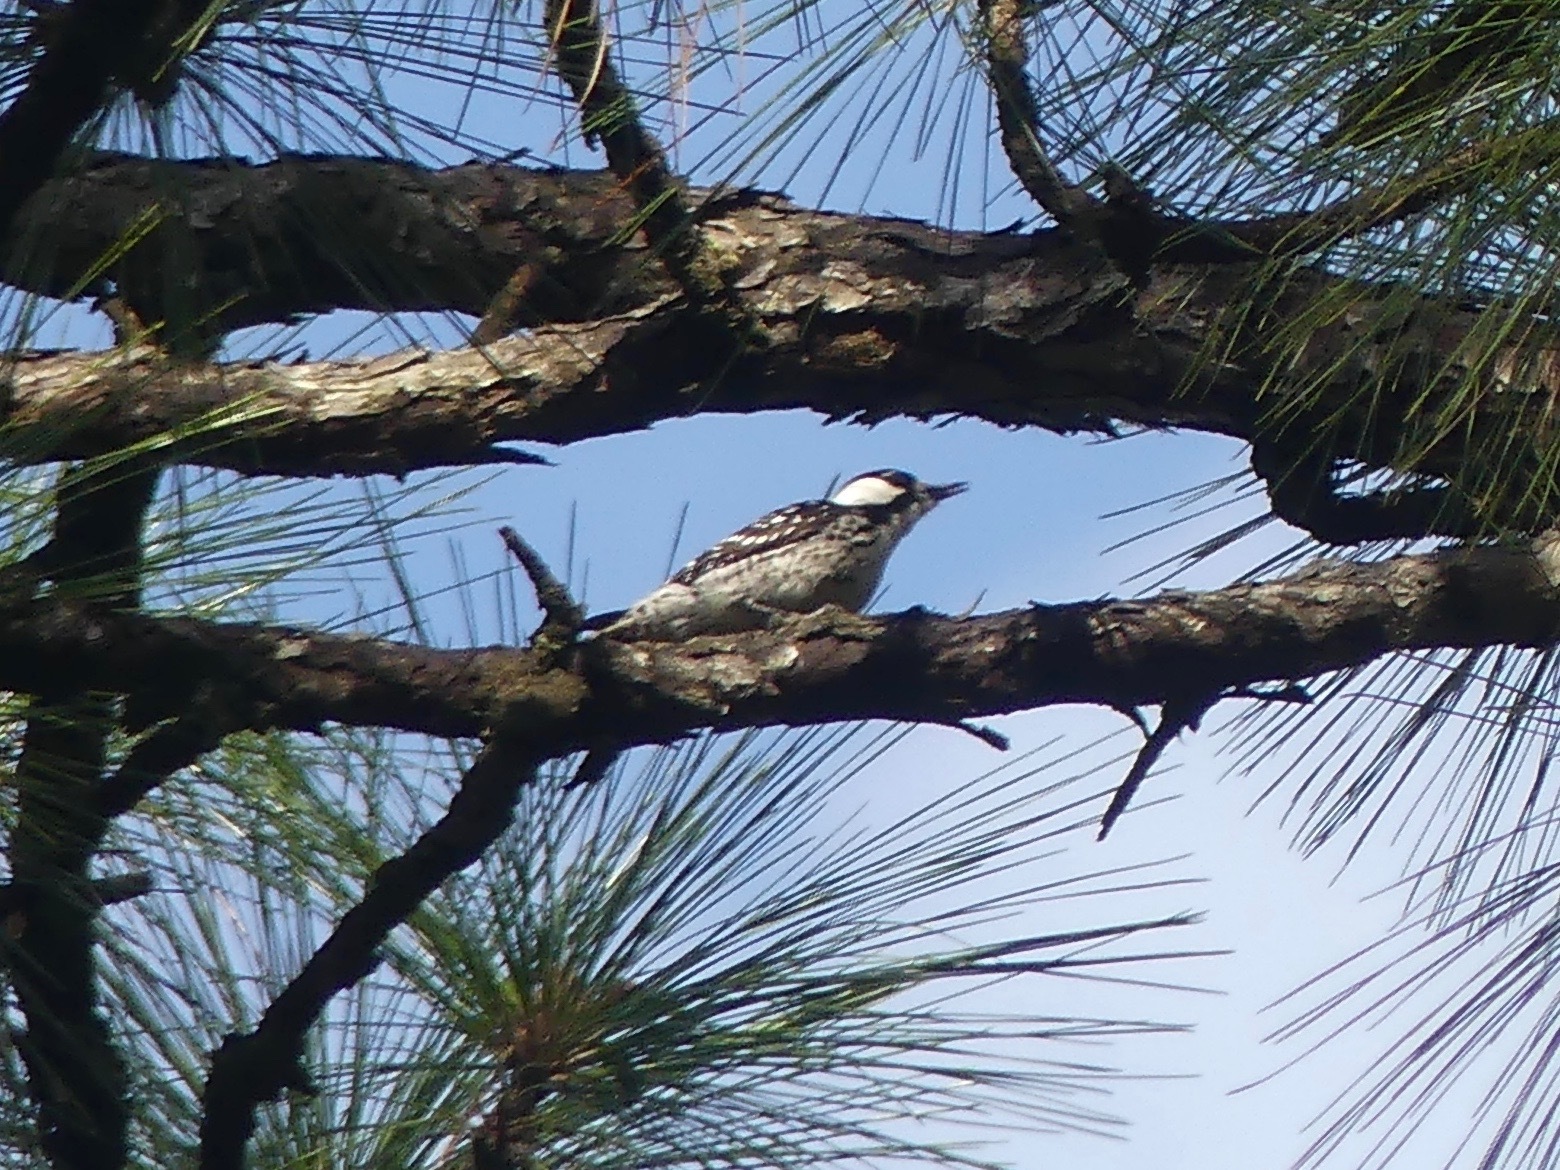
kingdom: Animalia
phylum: Chordata
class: Aves
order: Piciformes
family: Picidae
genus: Leuconotopicus
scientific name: Leuconotopicus borealis
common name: Red-cockaded woodpecker
